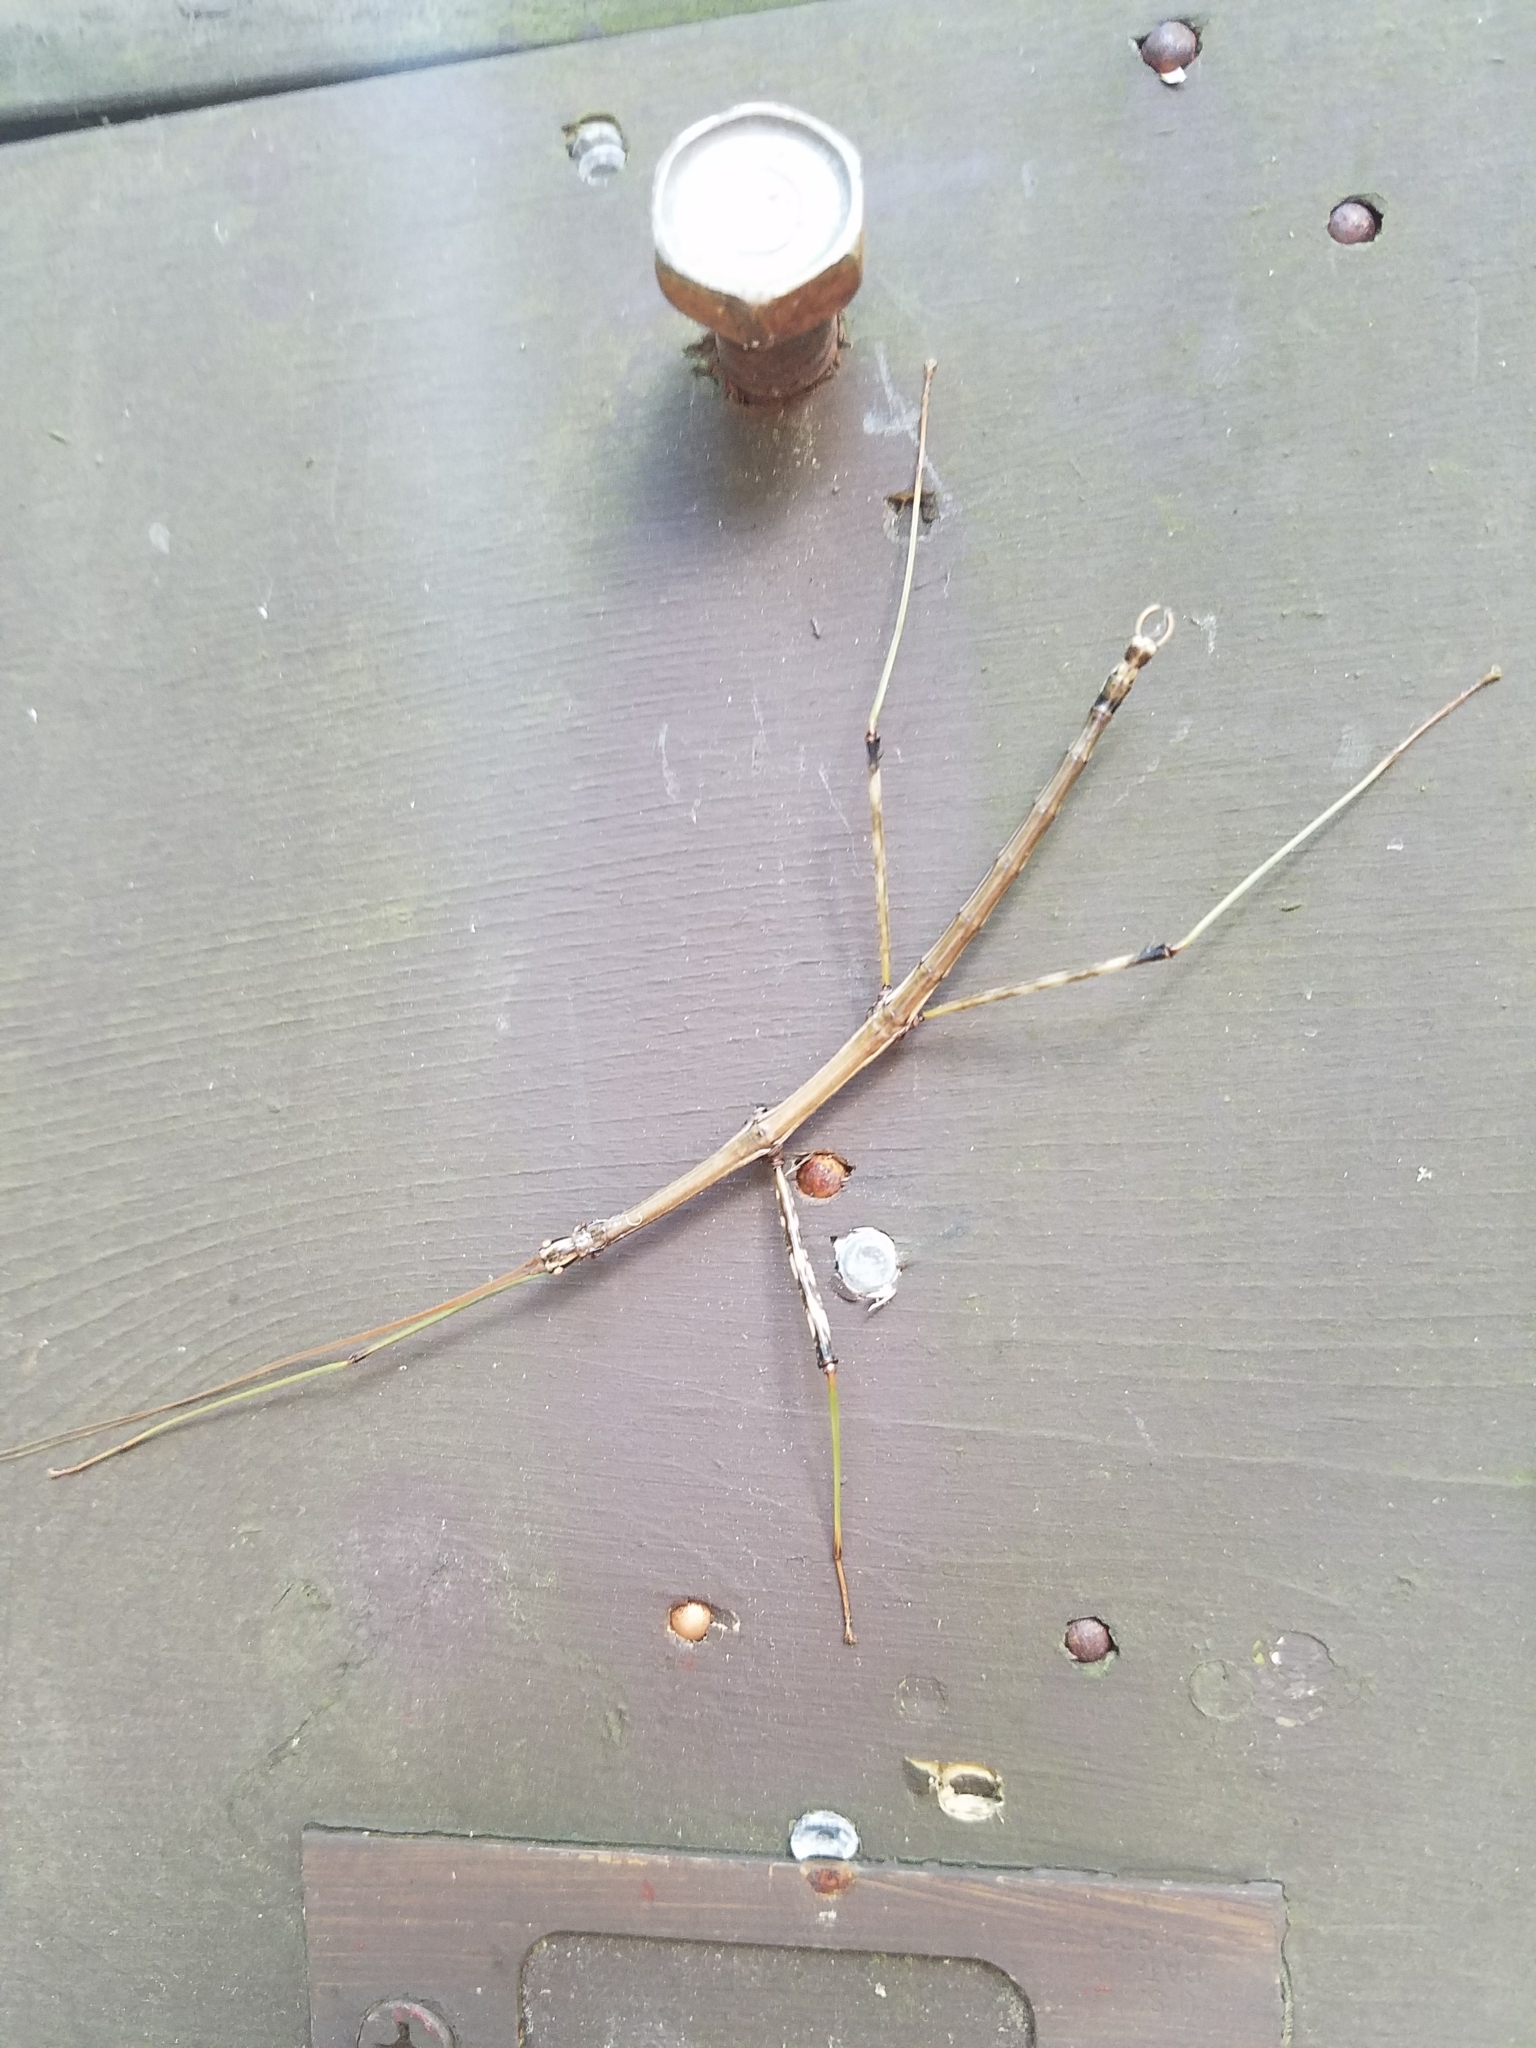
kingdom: Animalia
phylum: Arthropoda
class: Insecta
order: Phasmida
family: Diapheromeridae
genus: Diapheromera
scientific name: Diapheromera femorata
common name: Common american walkingstick
